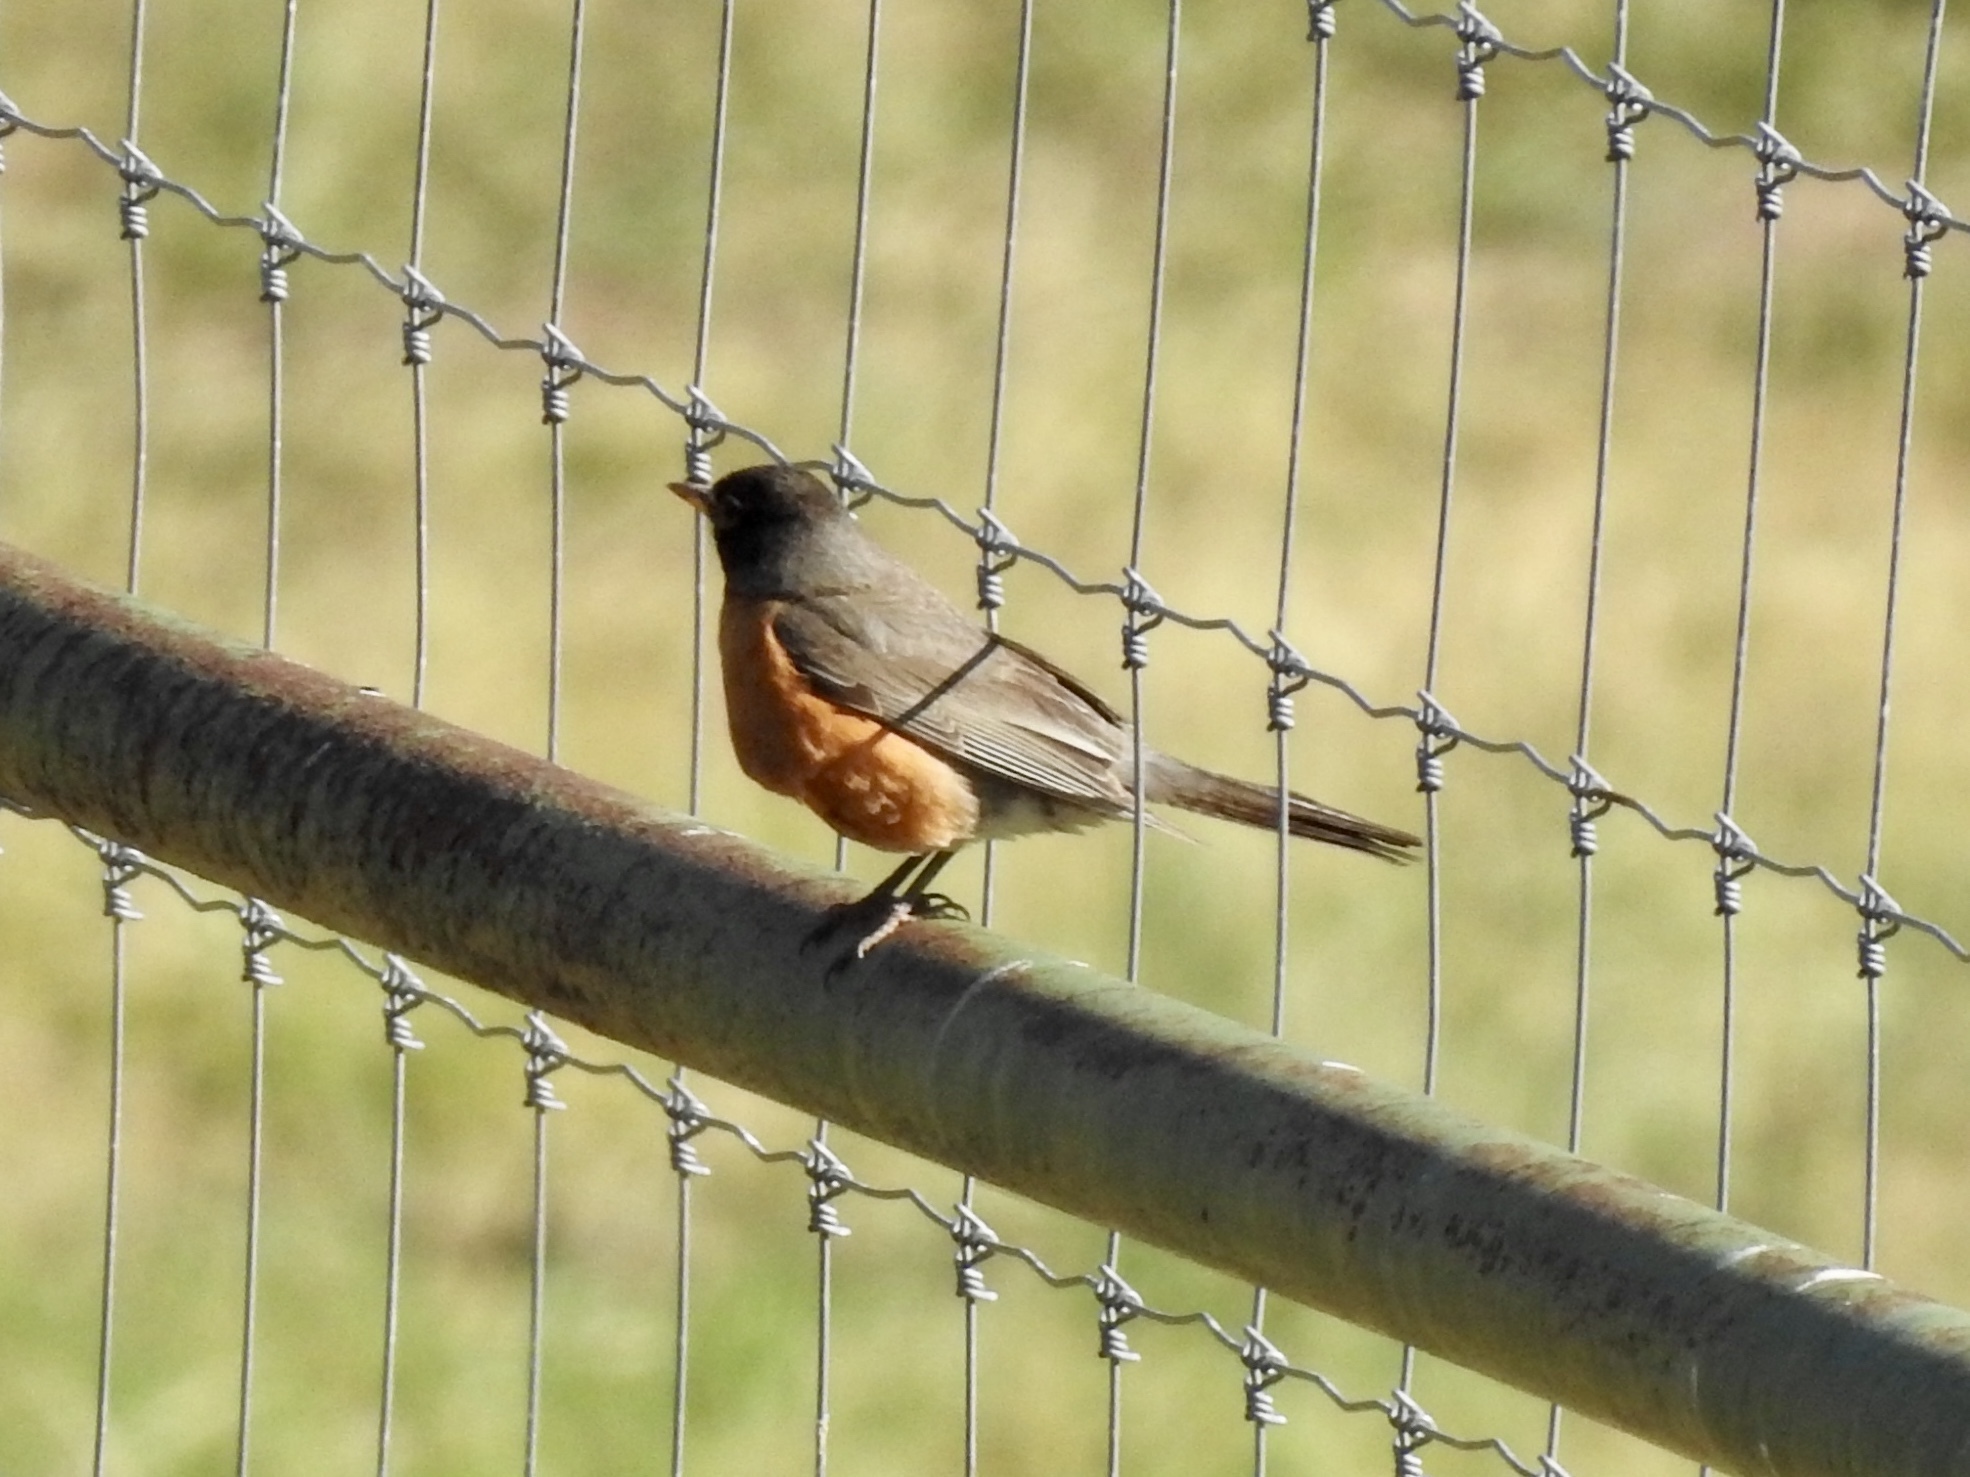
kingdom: Animalia
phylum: Chordata
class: Aves
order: Passeriformes
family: Turdidae
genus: Turdus
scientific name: Turdus migratorius
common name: American robin
